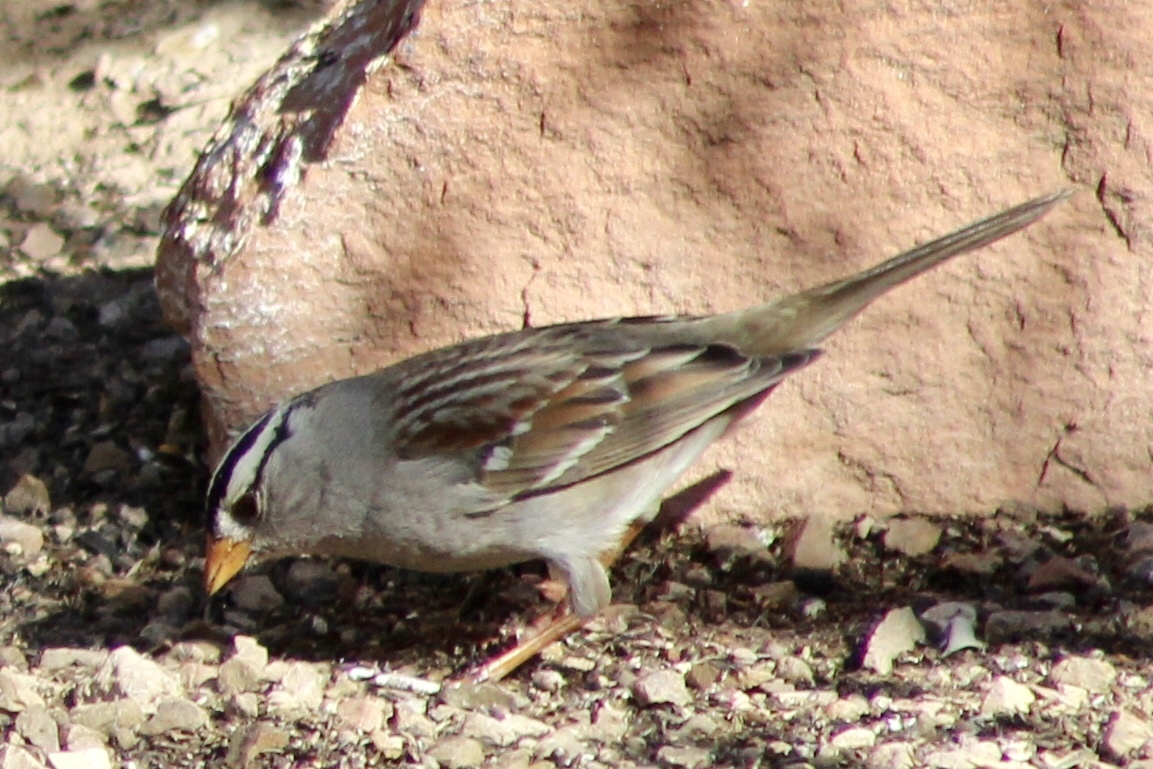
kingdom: Animalia
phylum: Chordata
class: Aves
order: Passeriformes
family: Passerellidae
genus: Zonotrichia
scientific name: Zonotrichia leucophrys
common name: White-crowned sparrow
